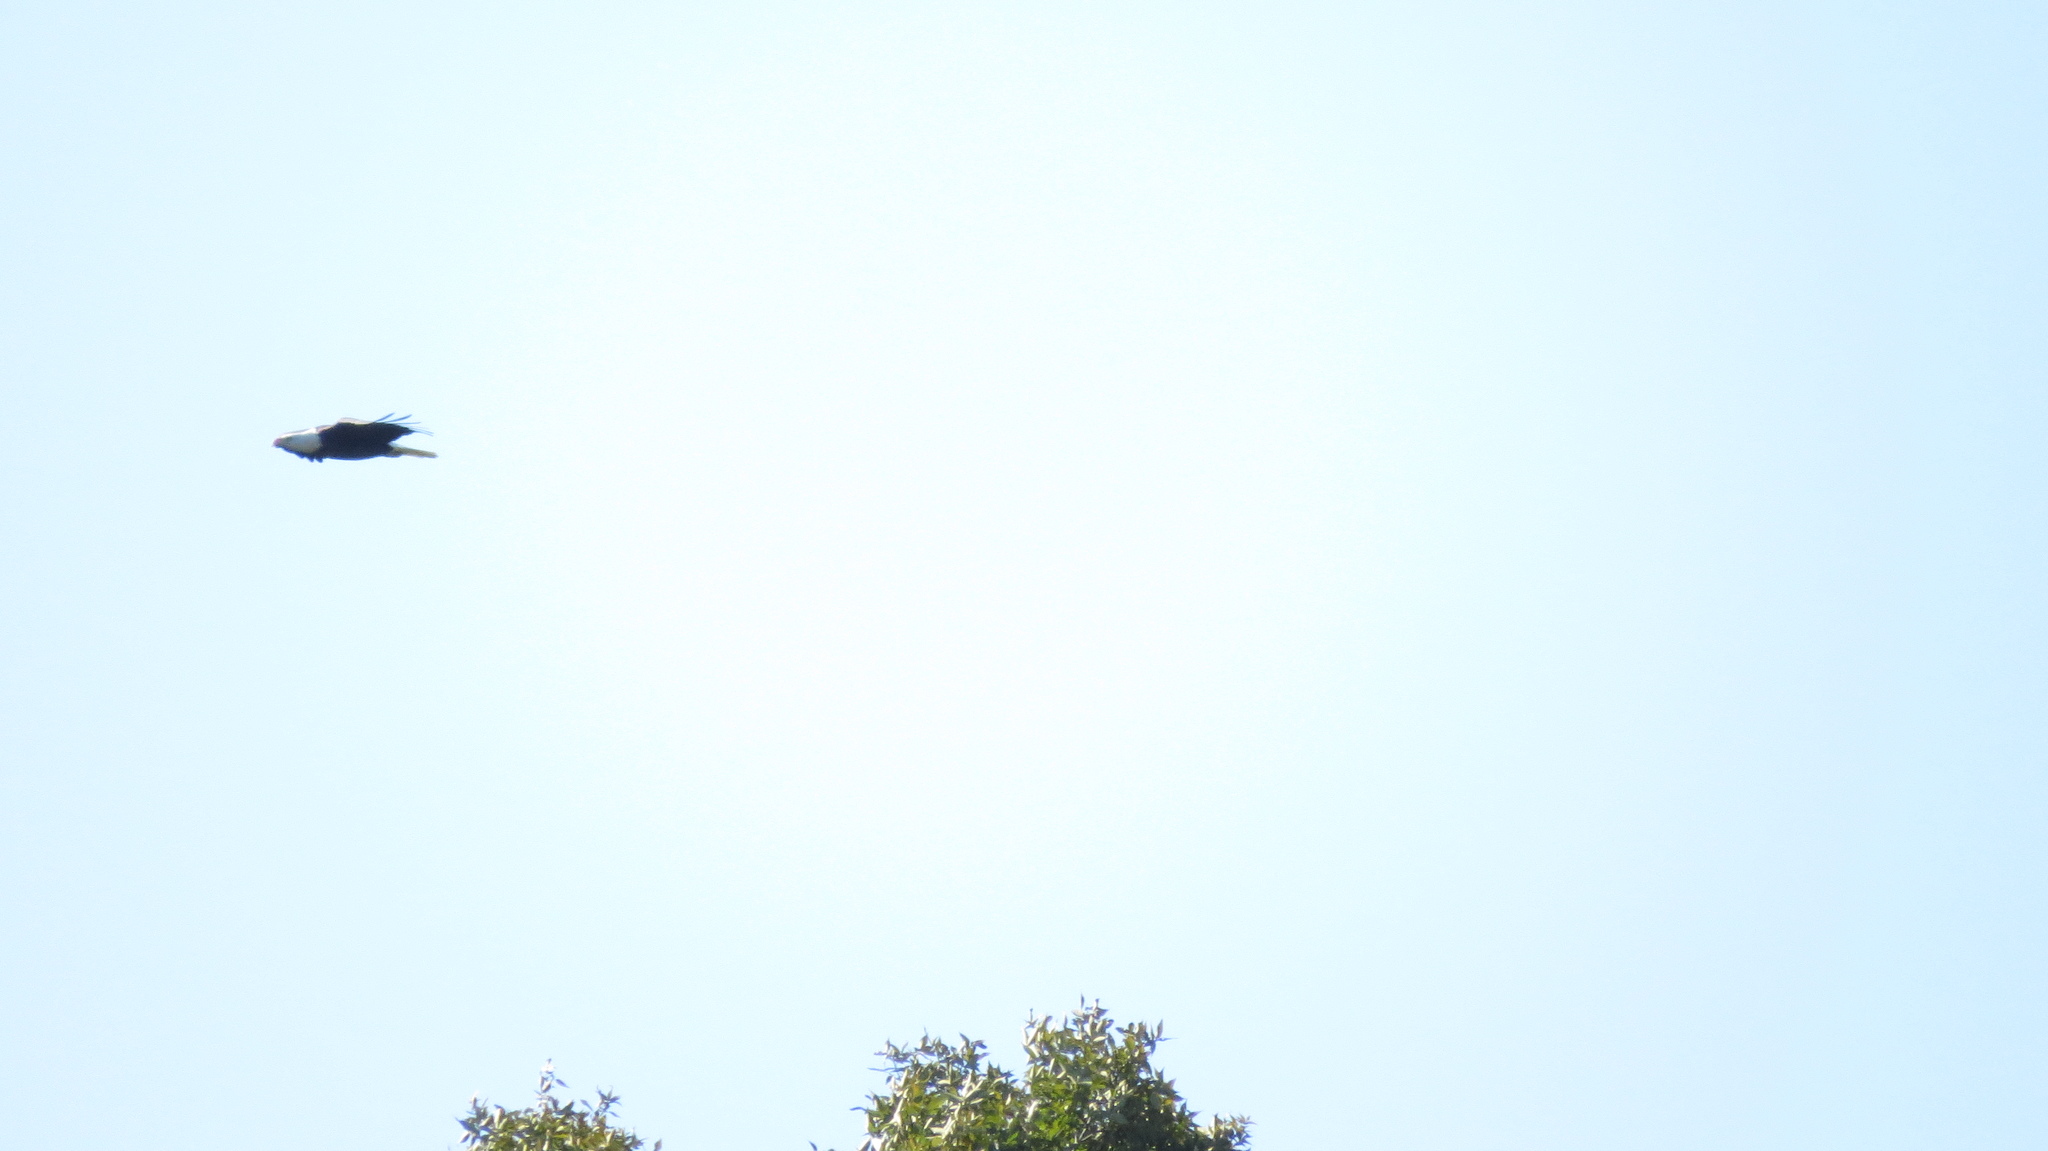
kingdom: Animalia
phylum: Chordata
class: Aves
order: Accipitriformes
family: Accipitridae
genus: Haliaeetus
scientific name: Haliaeetus leucocephalus
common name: Bald eagle
